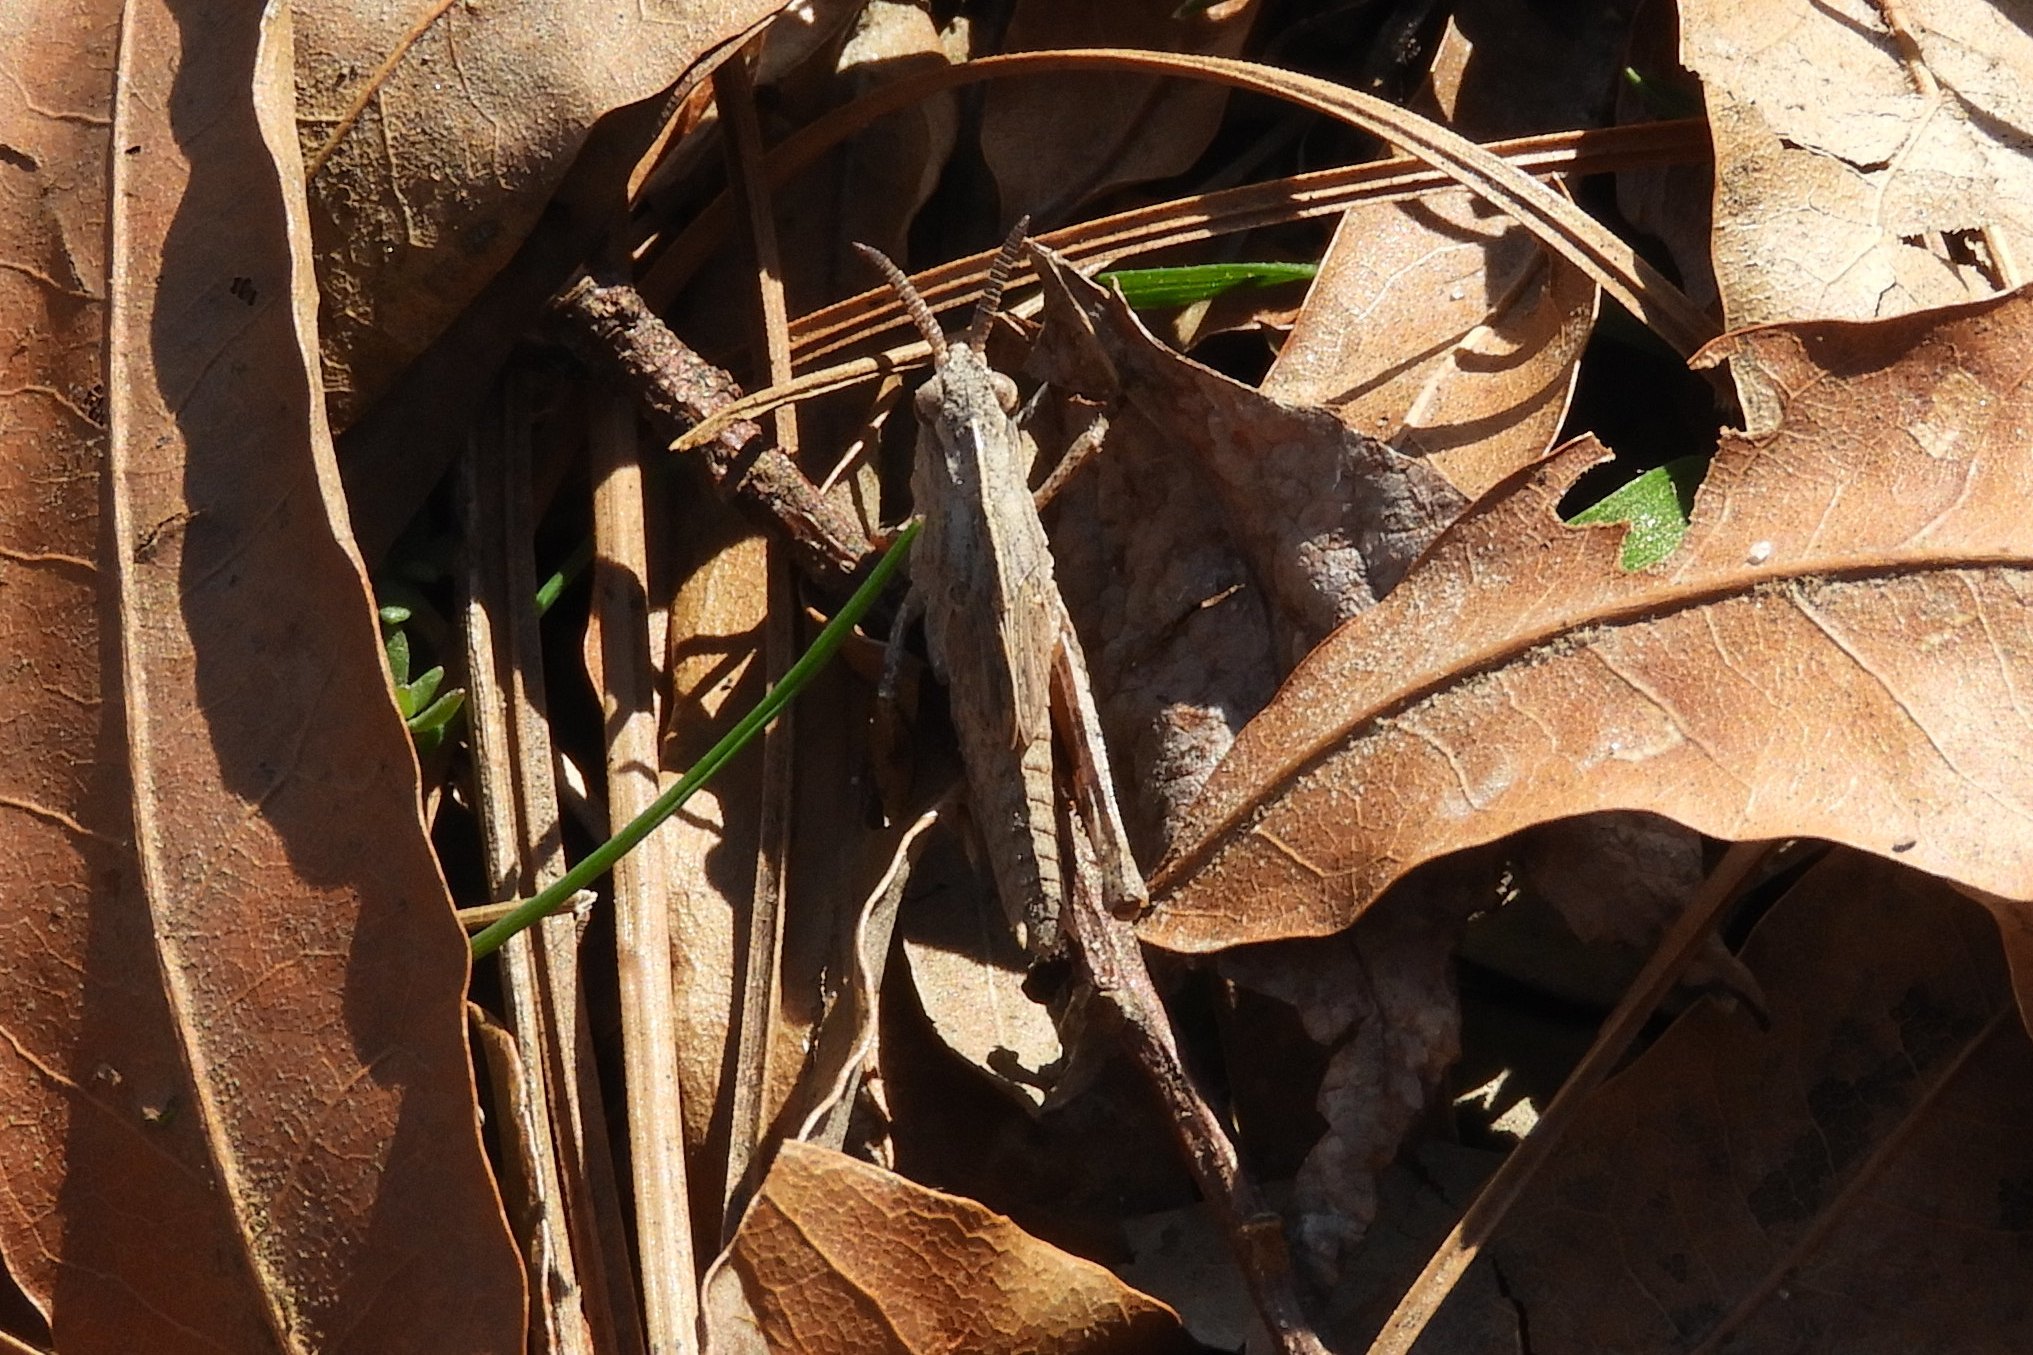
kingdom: Animalia
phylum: Arthropoda
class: Insecta
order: Orthoptera
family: Acrididae
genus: Chortophaga
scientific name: Chortophaga viridifasciata
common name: Green-striped grasshopper
